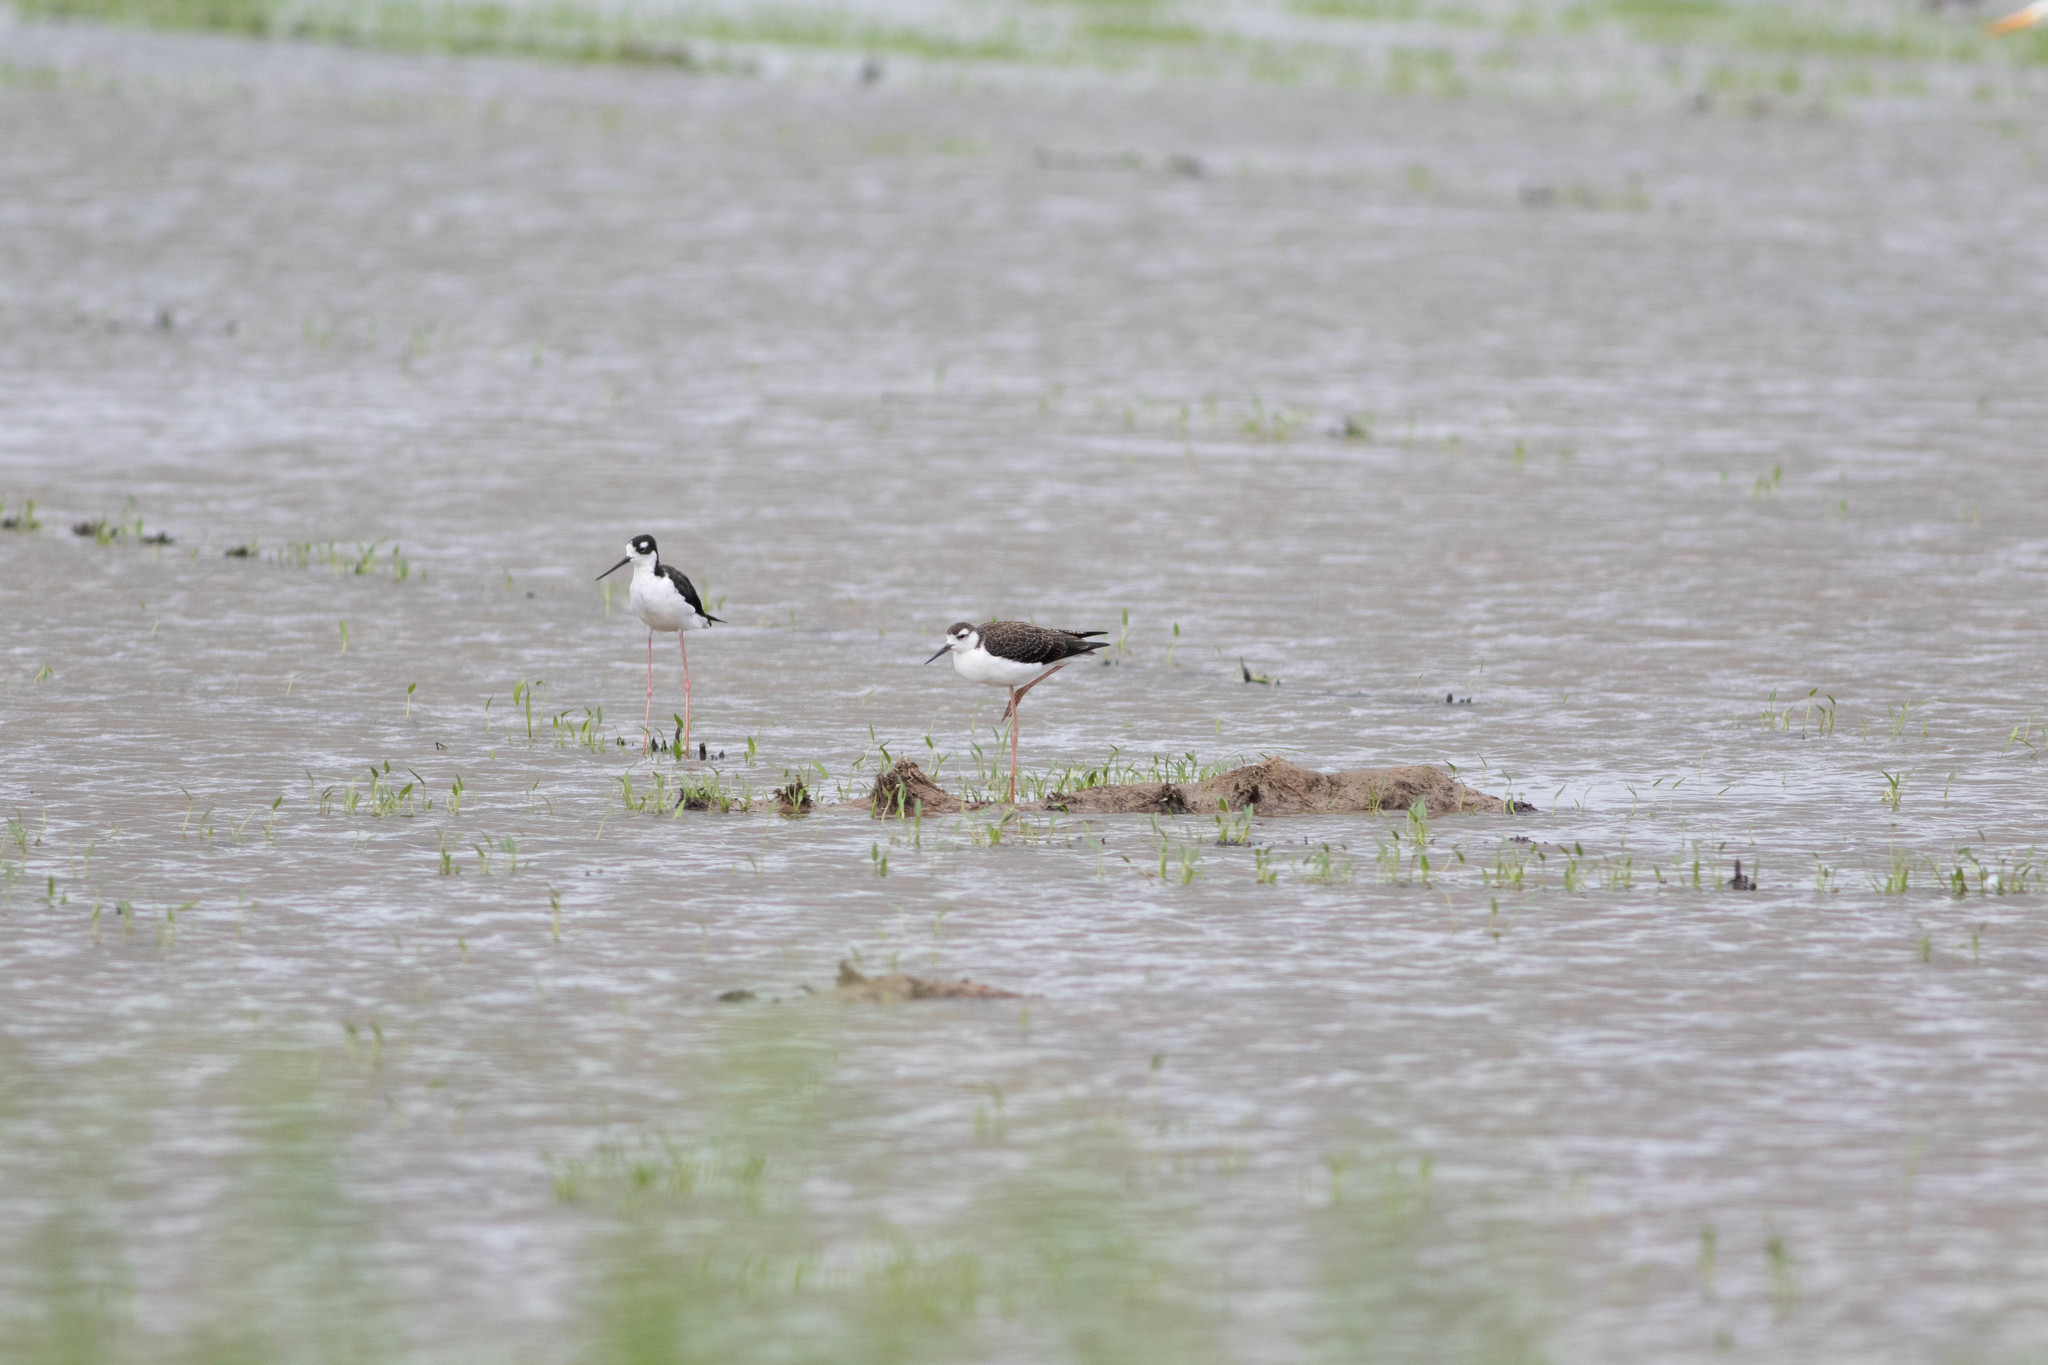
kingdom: Animalia
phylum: Chordata
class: Aves
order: Charadriiformes
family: Recurvirostridae
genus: Himantopus
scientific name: Himantopus mexicanus
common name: Black-necked stilt
